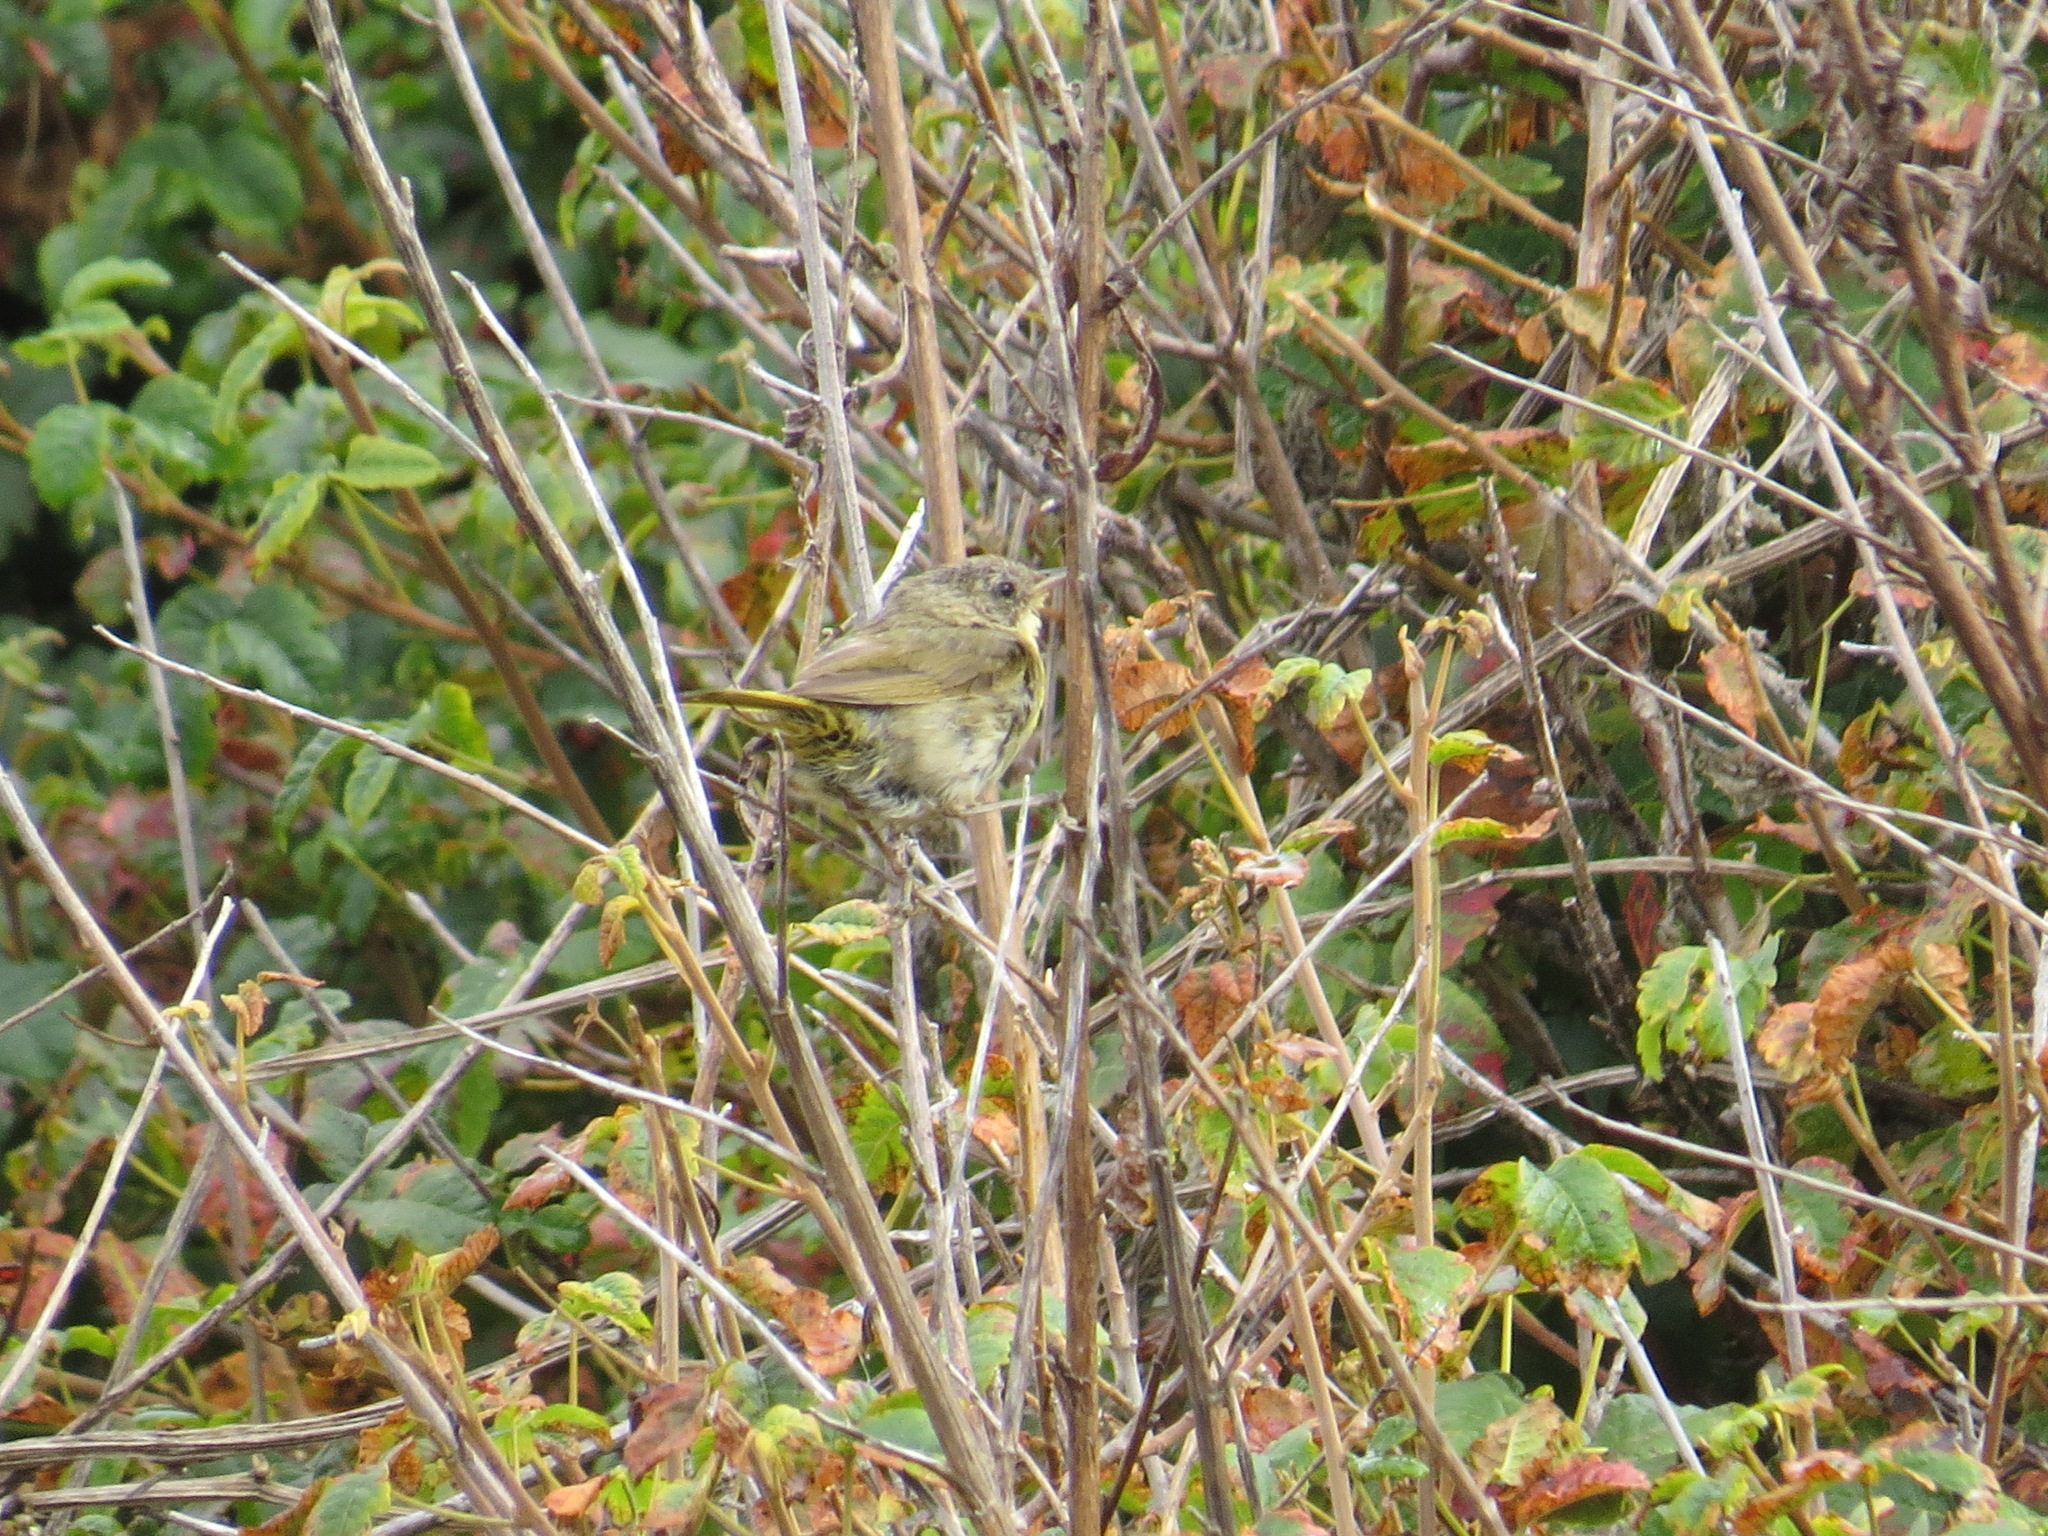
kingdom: Animalia
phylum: Chordata
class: Aves
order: Passeriformes
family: Parulidae
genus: Geothlypis
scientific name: Geothlypis trichas
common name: Common yellowthroat
